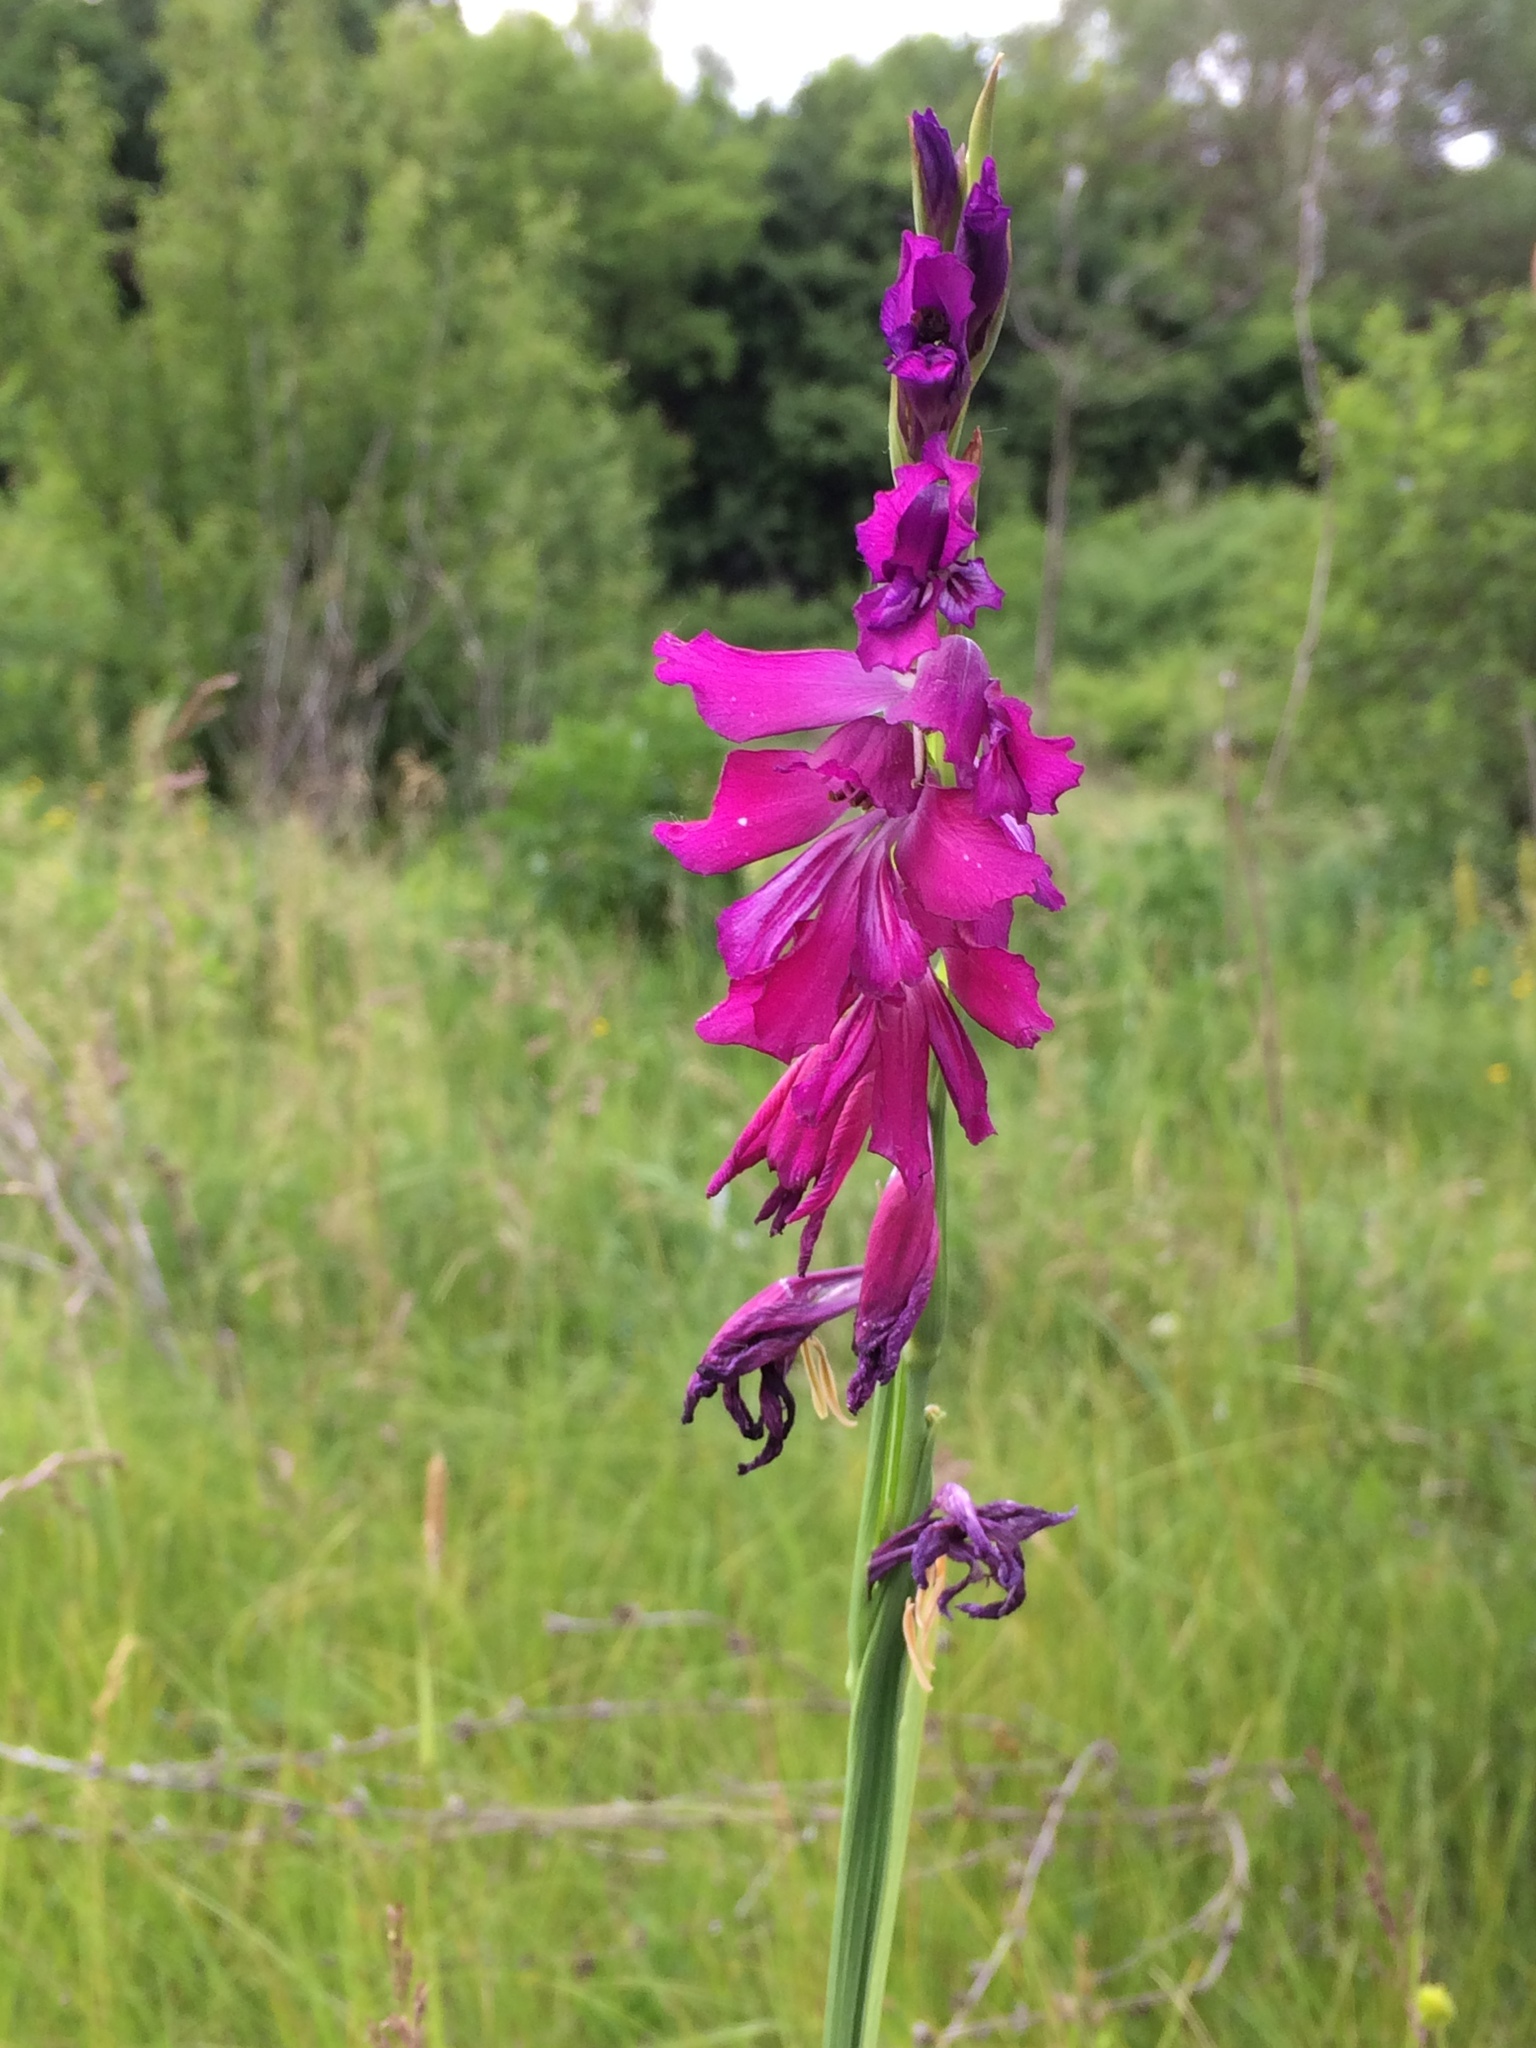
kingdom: Plantae
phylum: Tracheophyta
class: Liliopsida
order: Asparagales
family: Iridaceae
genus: Gladiolus
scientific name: Gladiolus imbricatus
